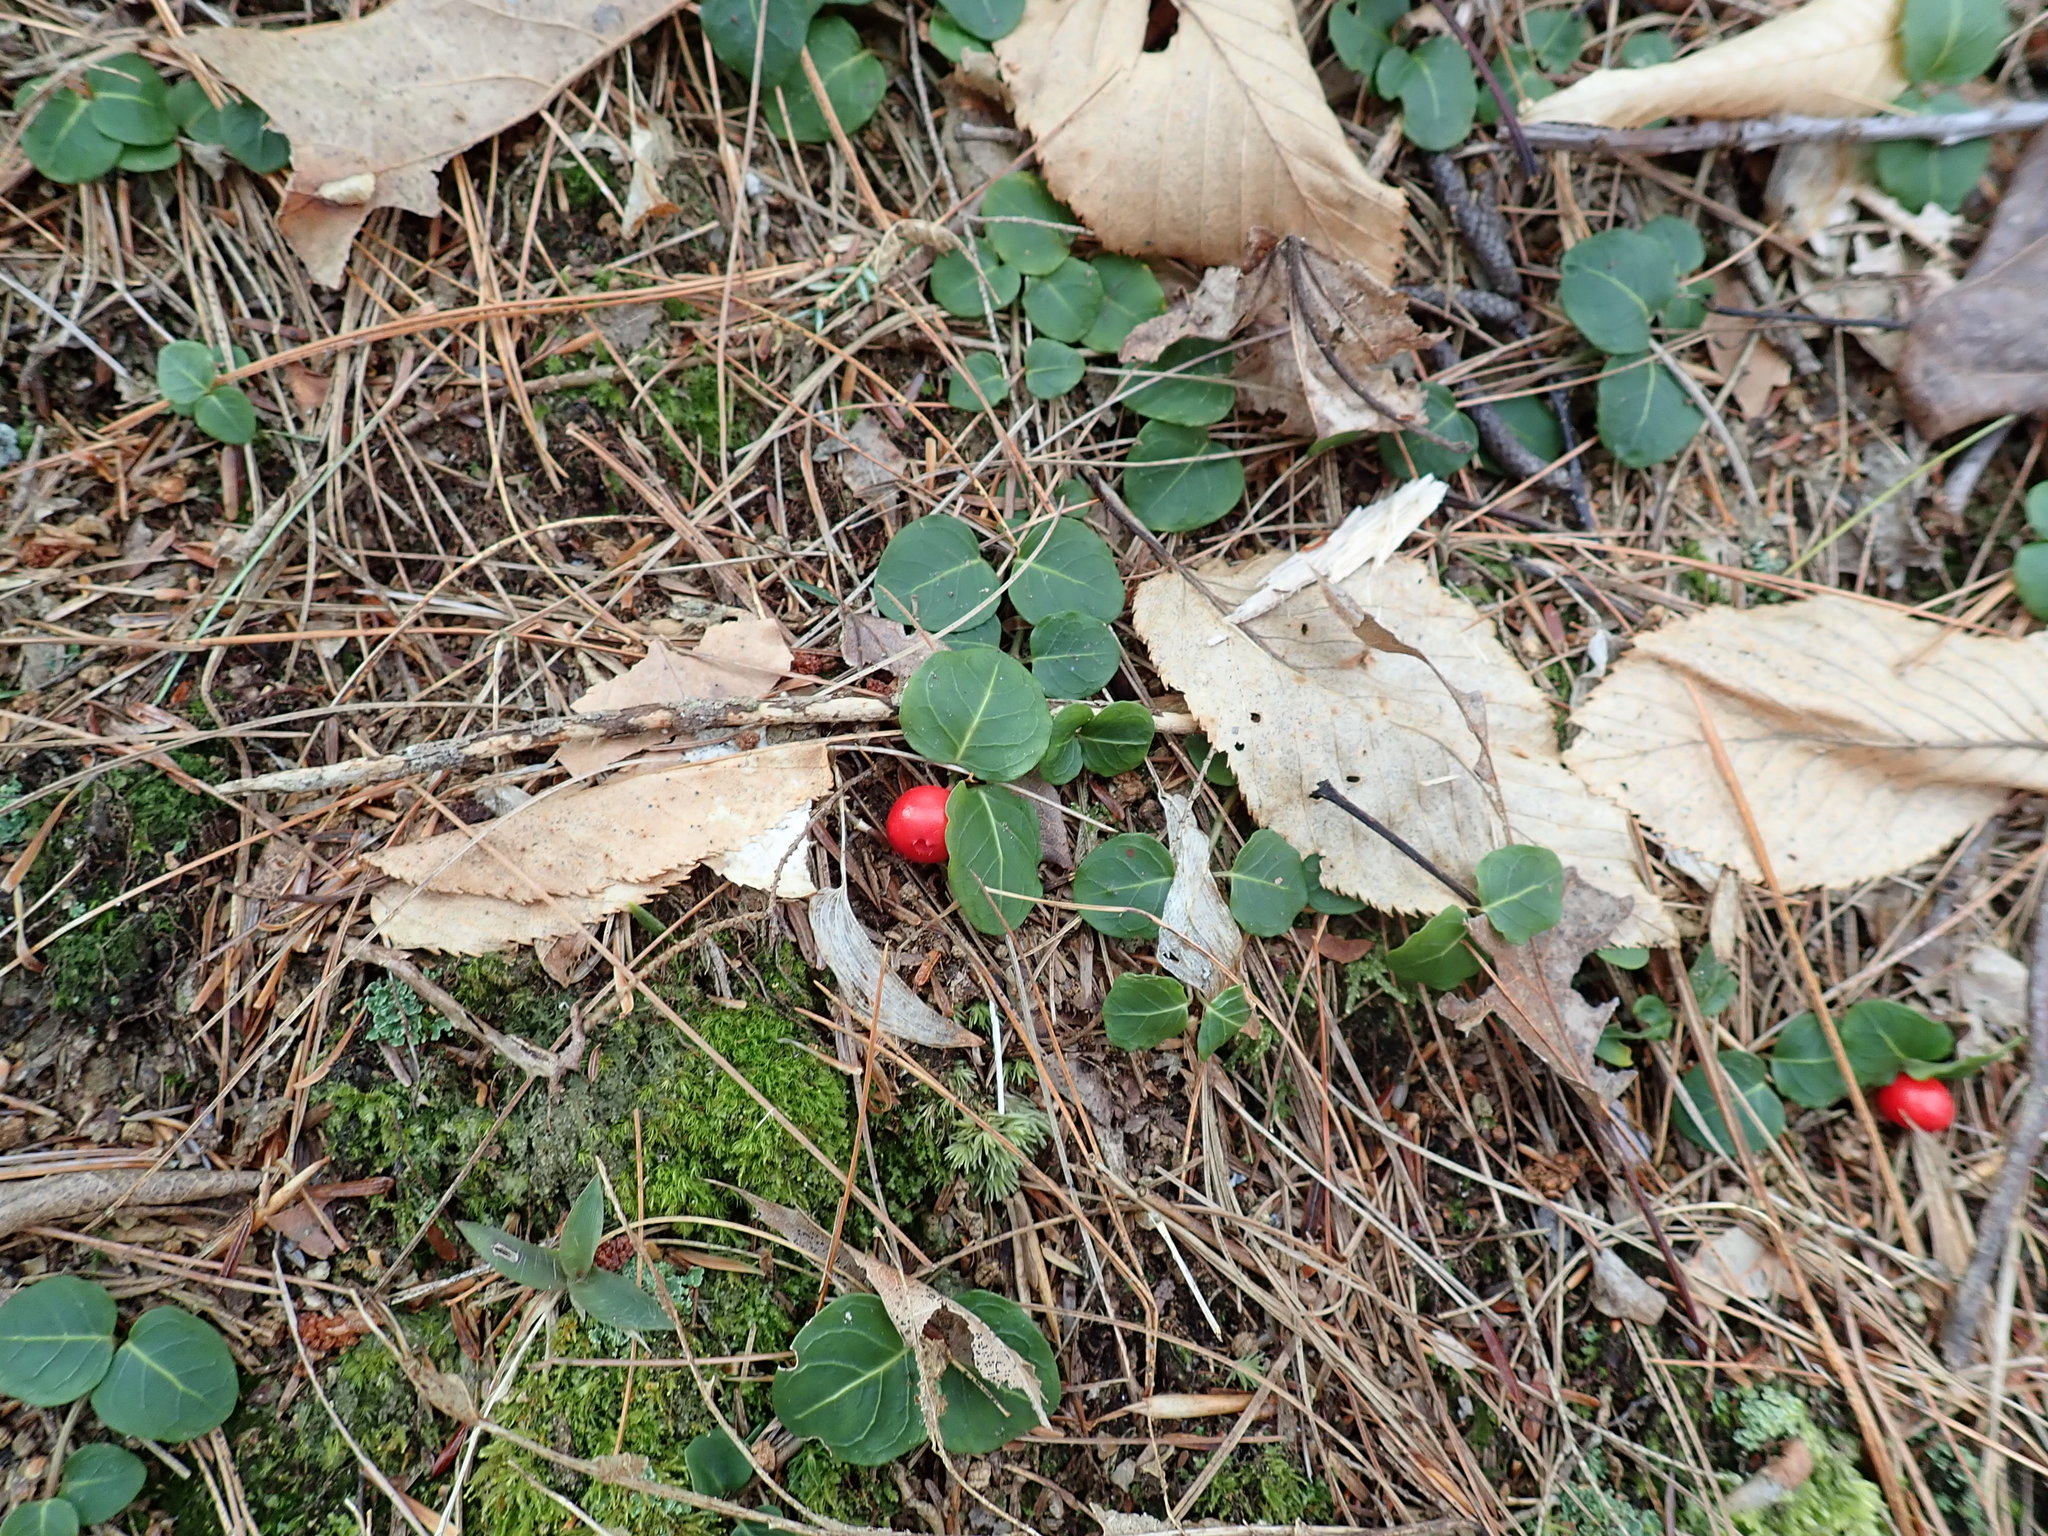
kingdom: Plantae
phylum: Tracheophyta
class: Magnoliopsida
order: Gentianales
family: Rubiaceae
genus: Mitchella
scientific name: Mitchella repens
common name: Partridge-berry
